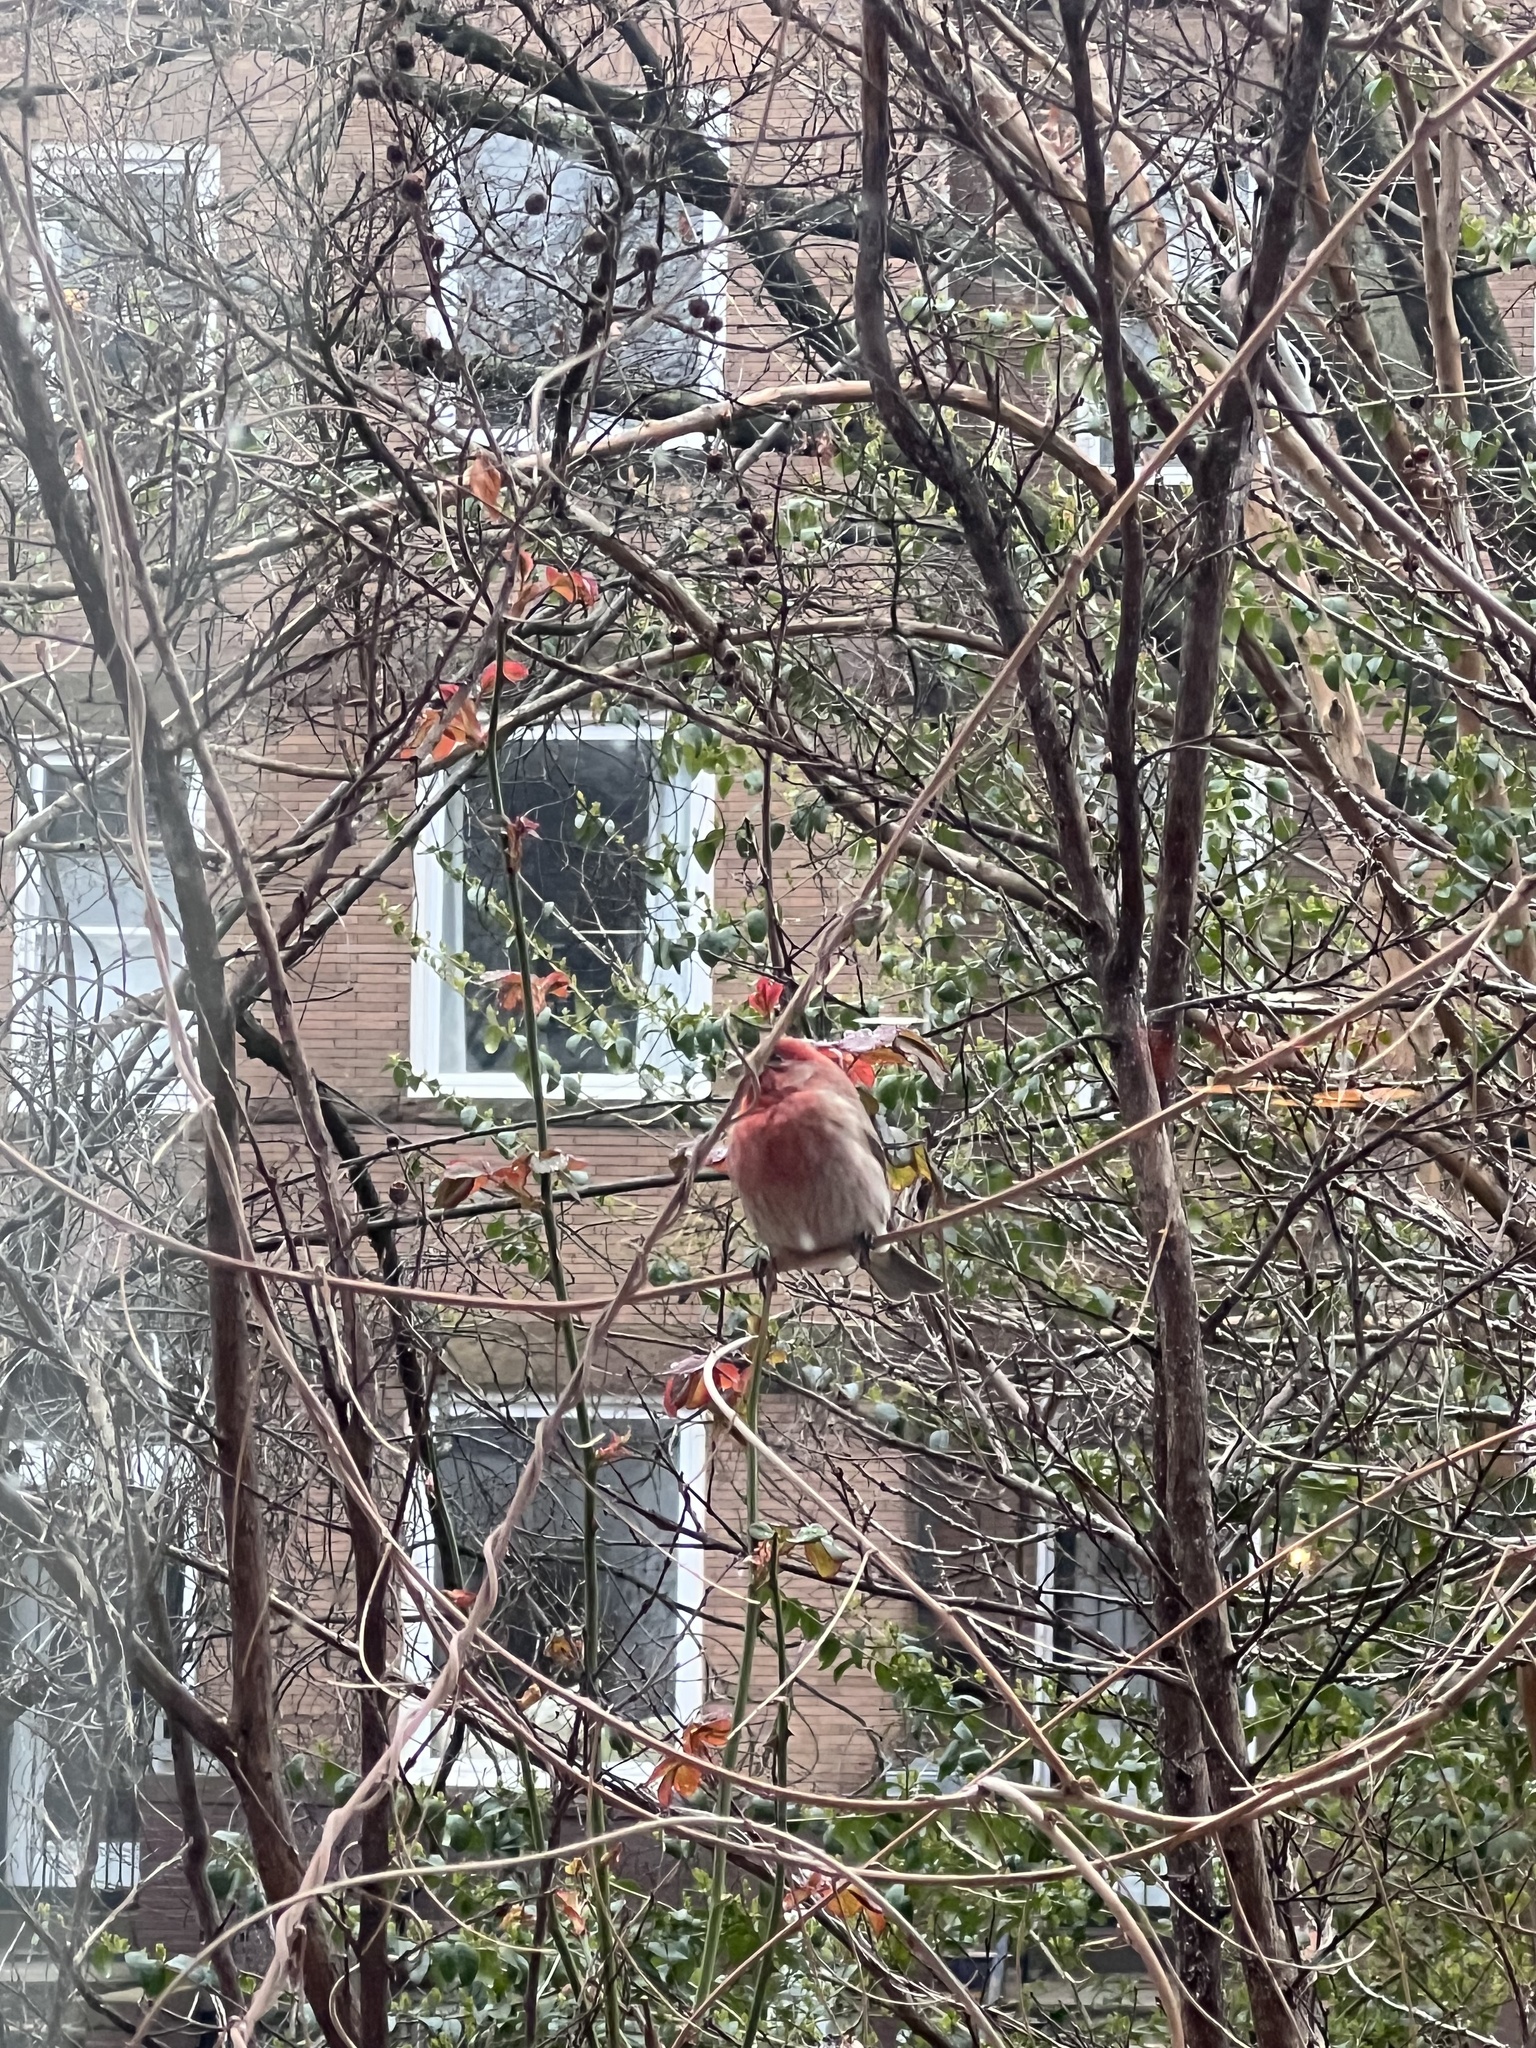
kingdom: Animalia
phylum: Chordata
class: Aves
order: Passeriformes
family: Fringillidae
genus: Haemorhous
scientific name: Haemorhous mexicanus
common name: House finch
